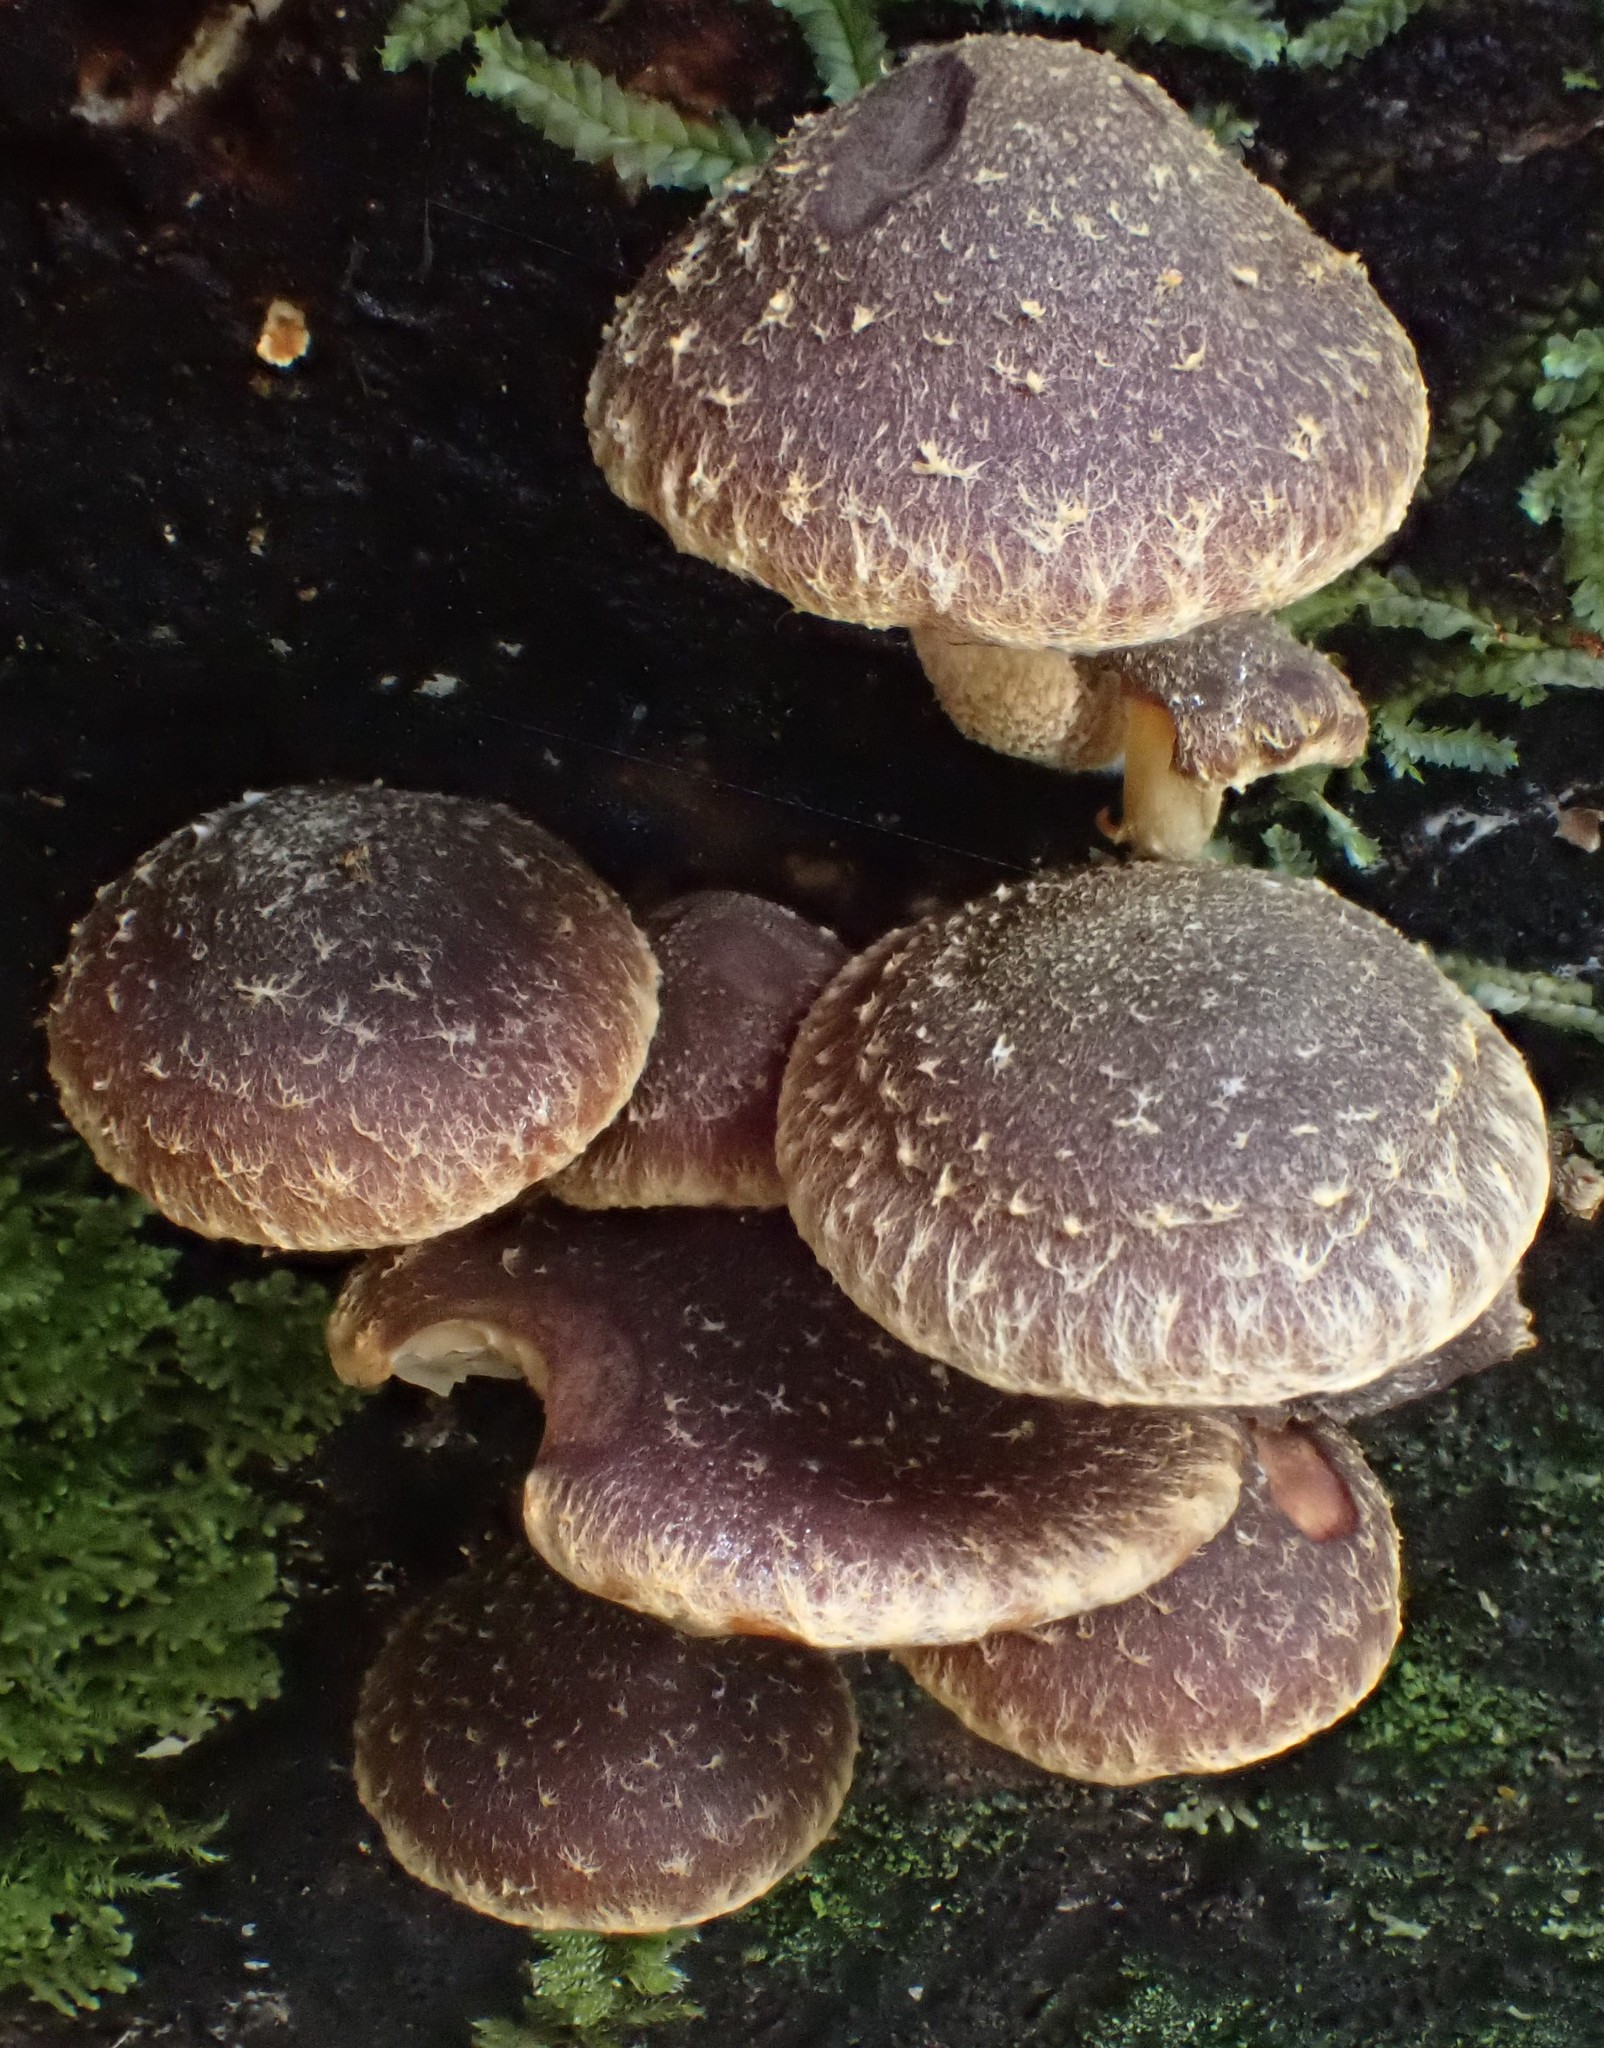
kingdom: Fungi
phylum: Basidiomycota
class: Agaricomycetes
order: Agaricales
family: Strophariaceae
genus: Hypholoma
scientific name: Hypholoma brunneum
